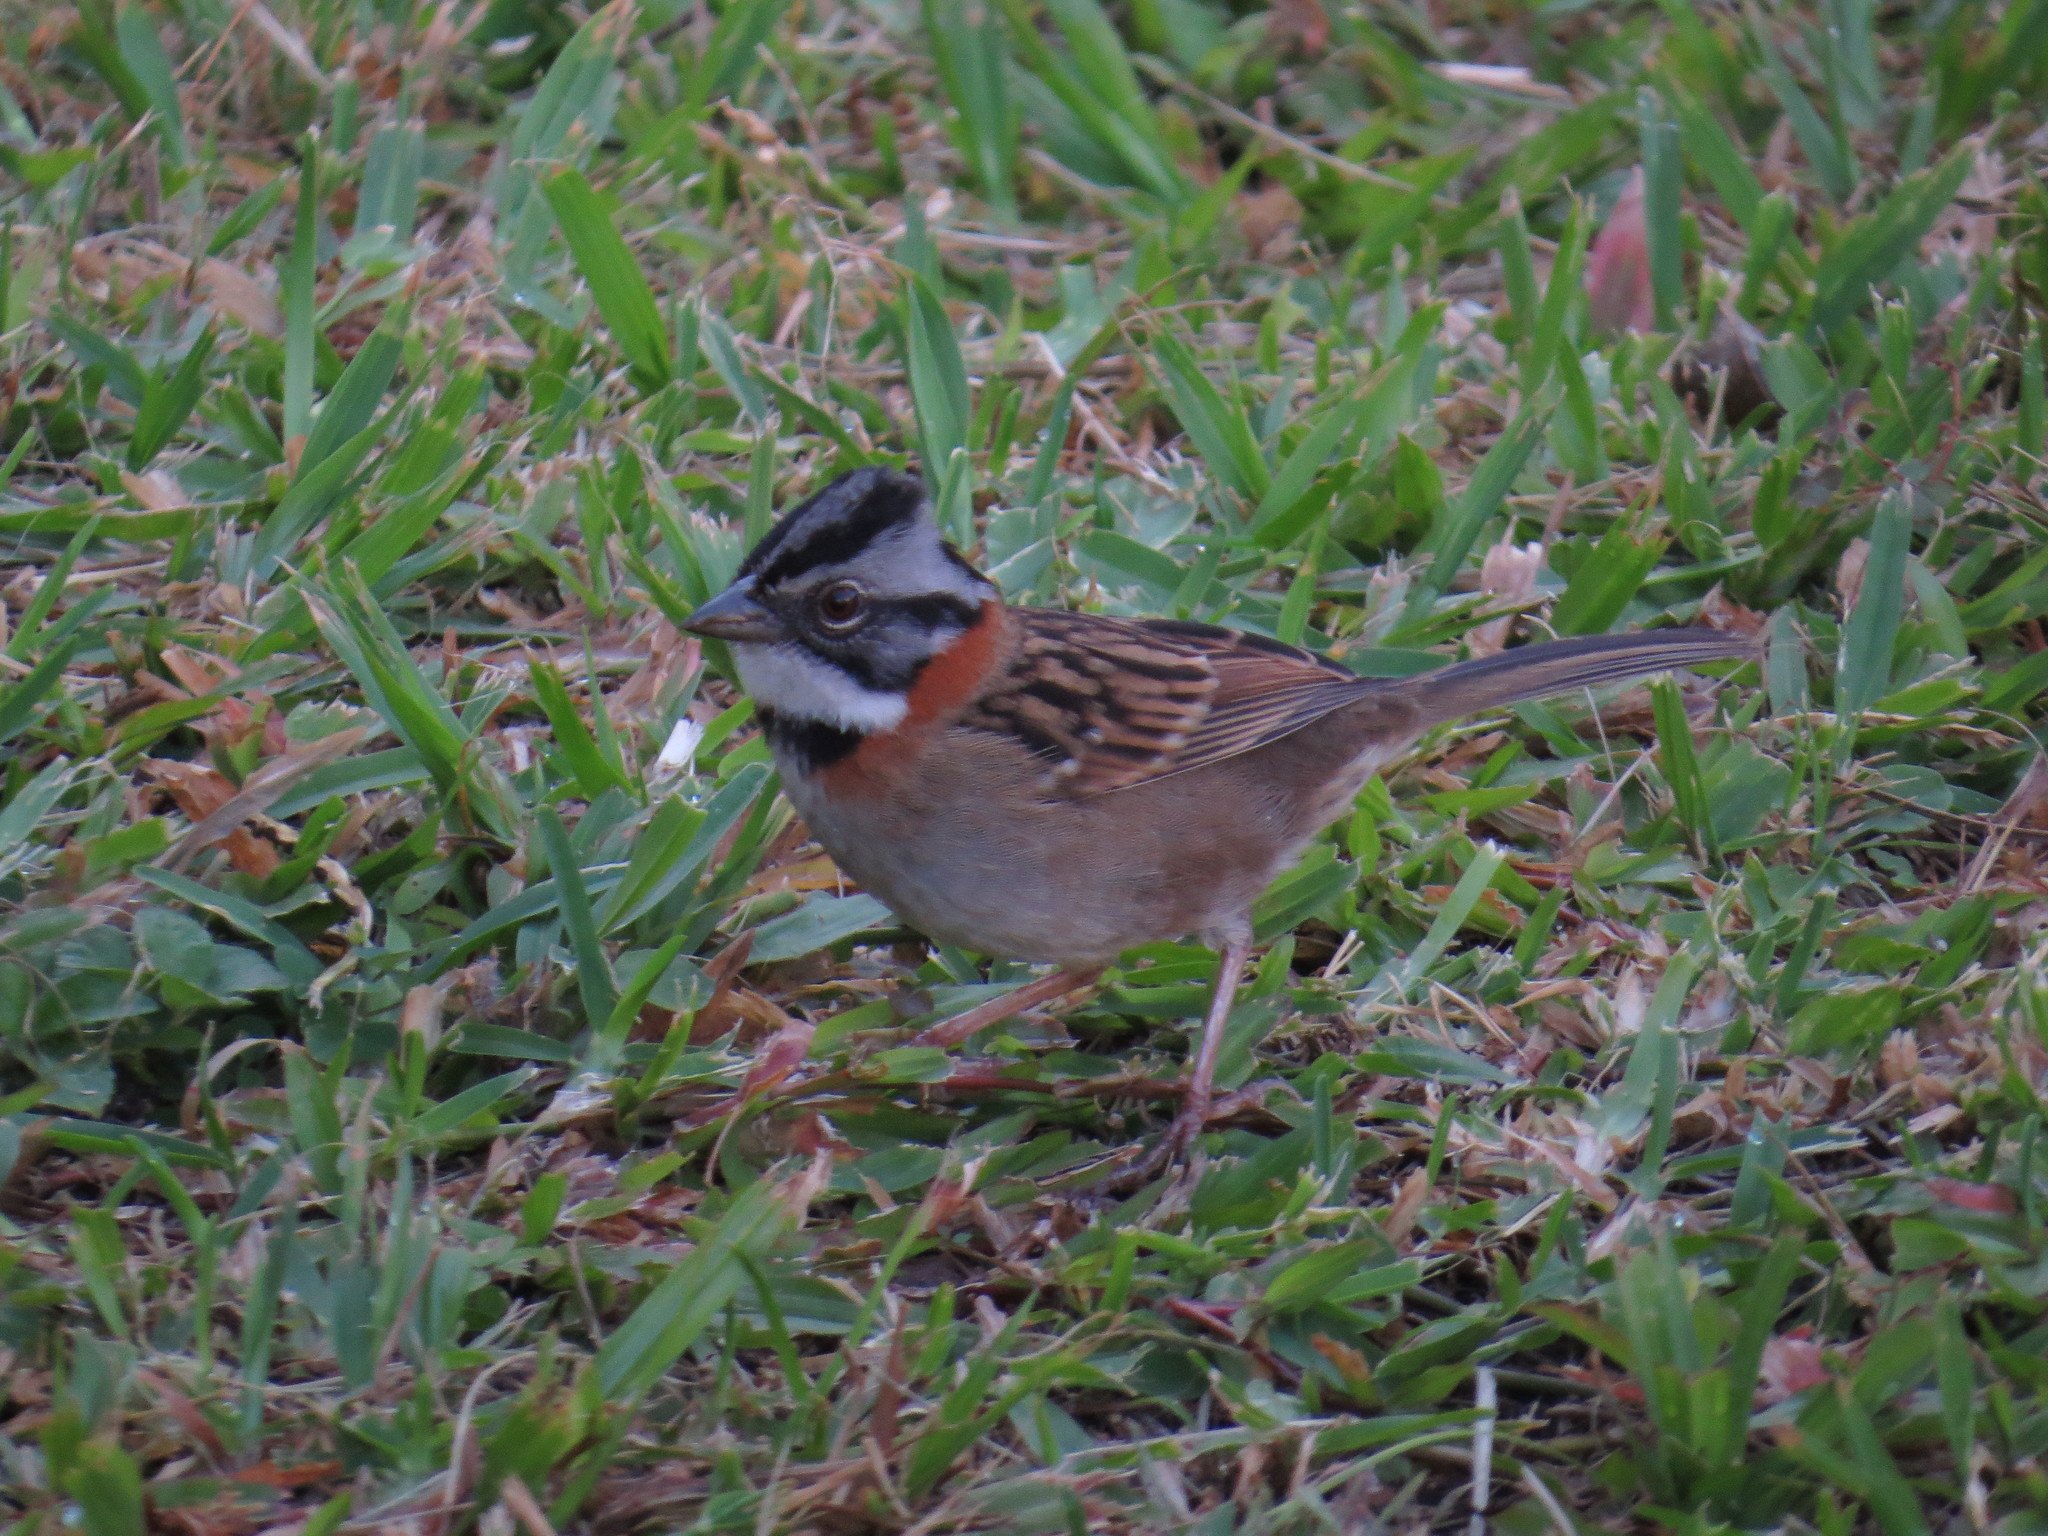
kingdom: Animalia
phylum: Chordata
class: Aves
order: Passeriformes
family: Passerellidae
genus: Zonotrichia
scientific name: Zonotrichia capensis
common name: Rufous-collared sparrow
